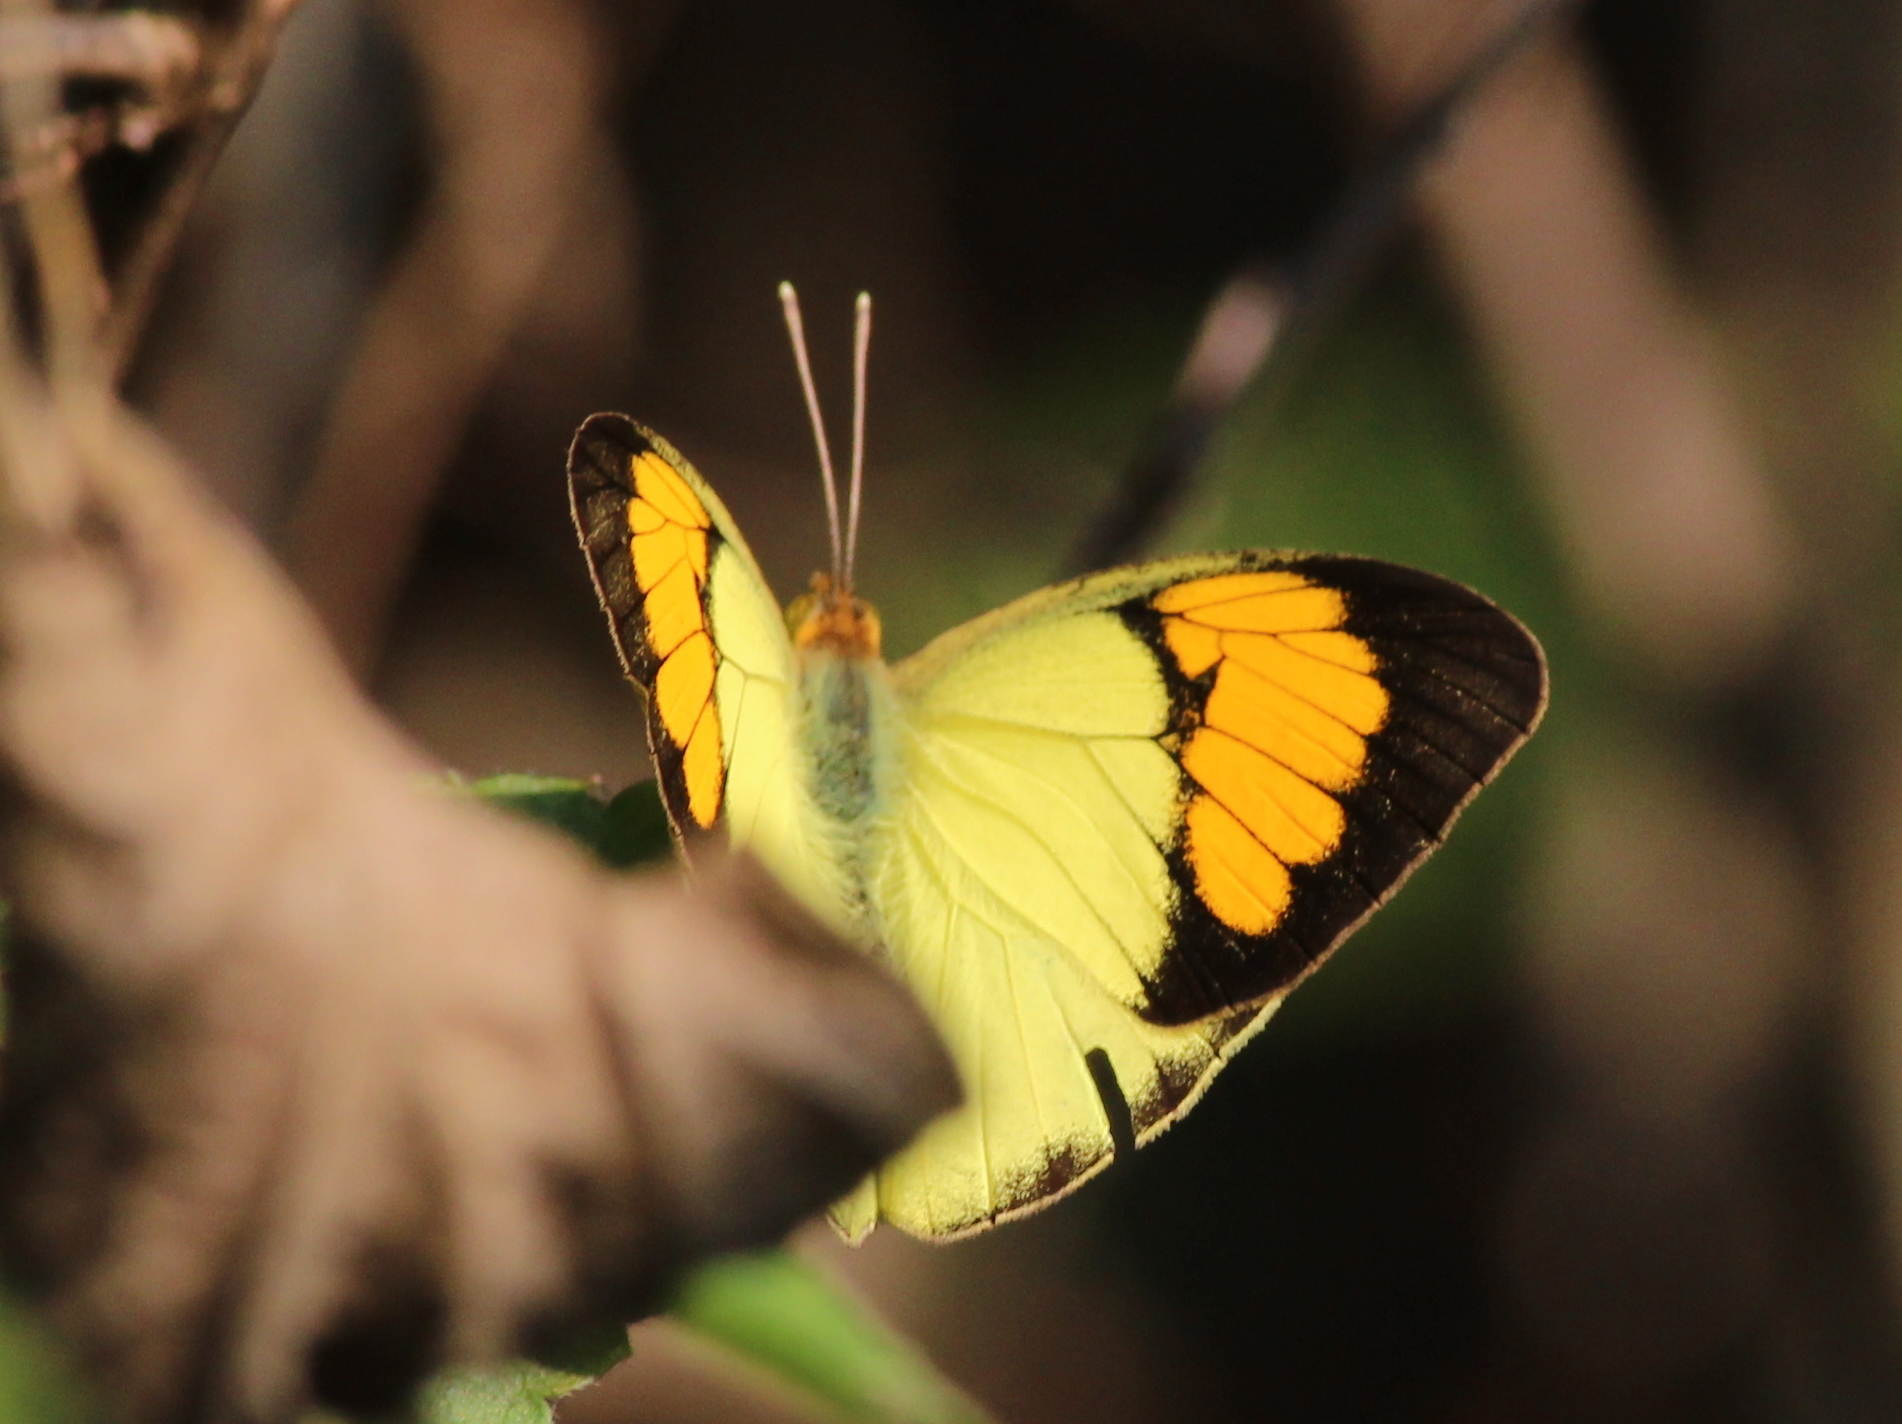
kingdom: Animalia
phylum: Arthropoda
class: Insecta
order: Lepidoptera
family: Pieridae
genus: Ixias
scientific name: Ixias pyrene
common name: Yellow orange tip
